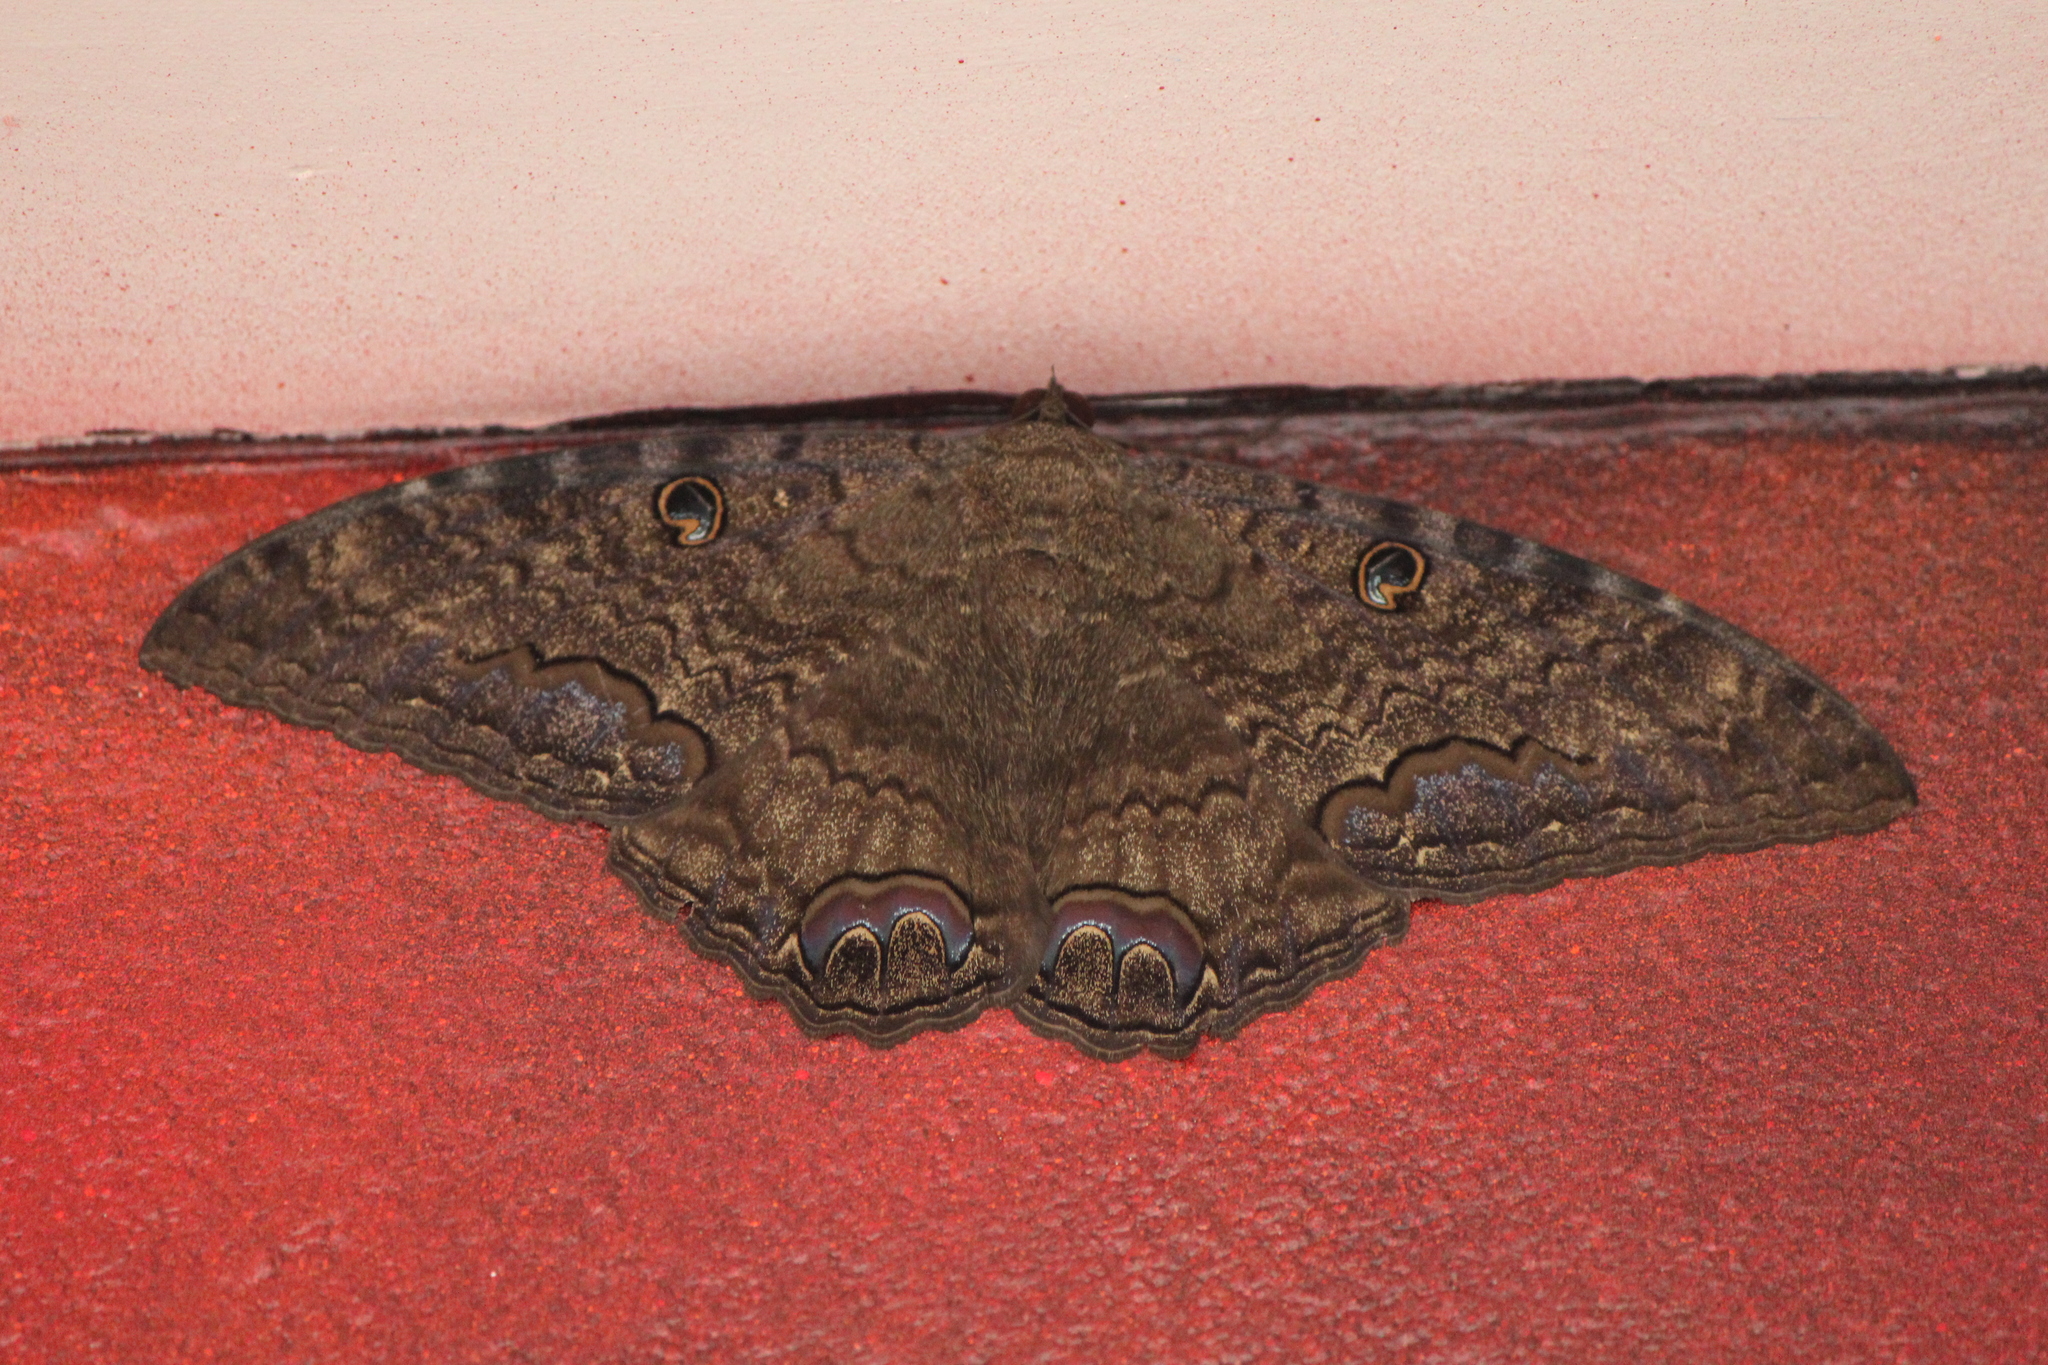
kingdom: Animalia
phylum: Arthropoda
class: Insecta
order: Lepidoptera
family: Erebidae
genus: Ascalapha
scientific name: Ascalapha odorata
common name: Black witch
